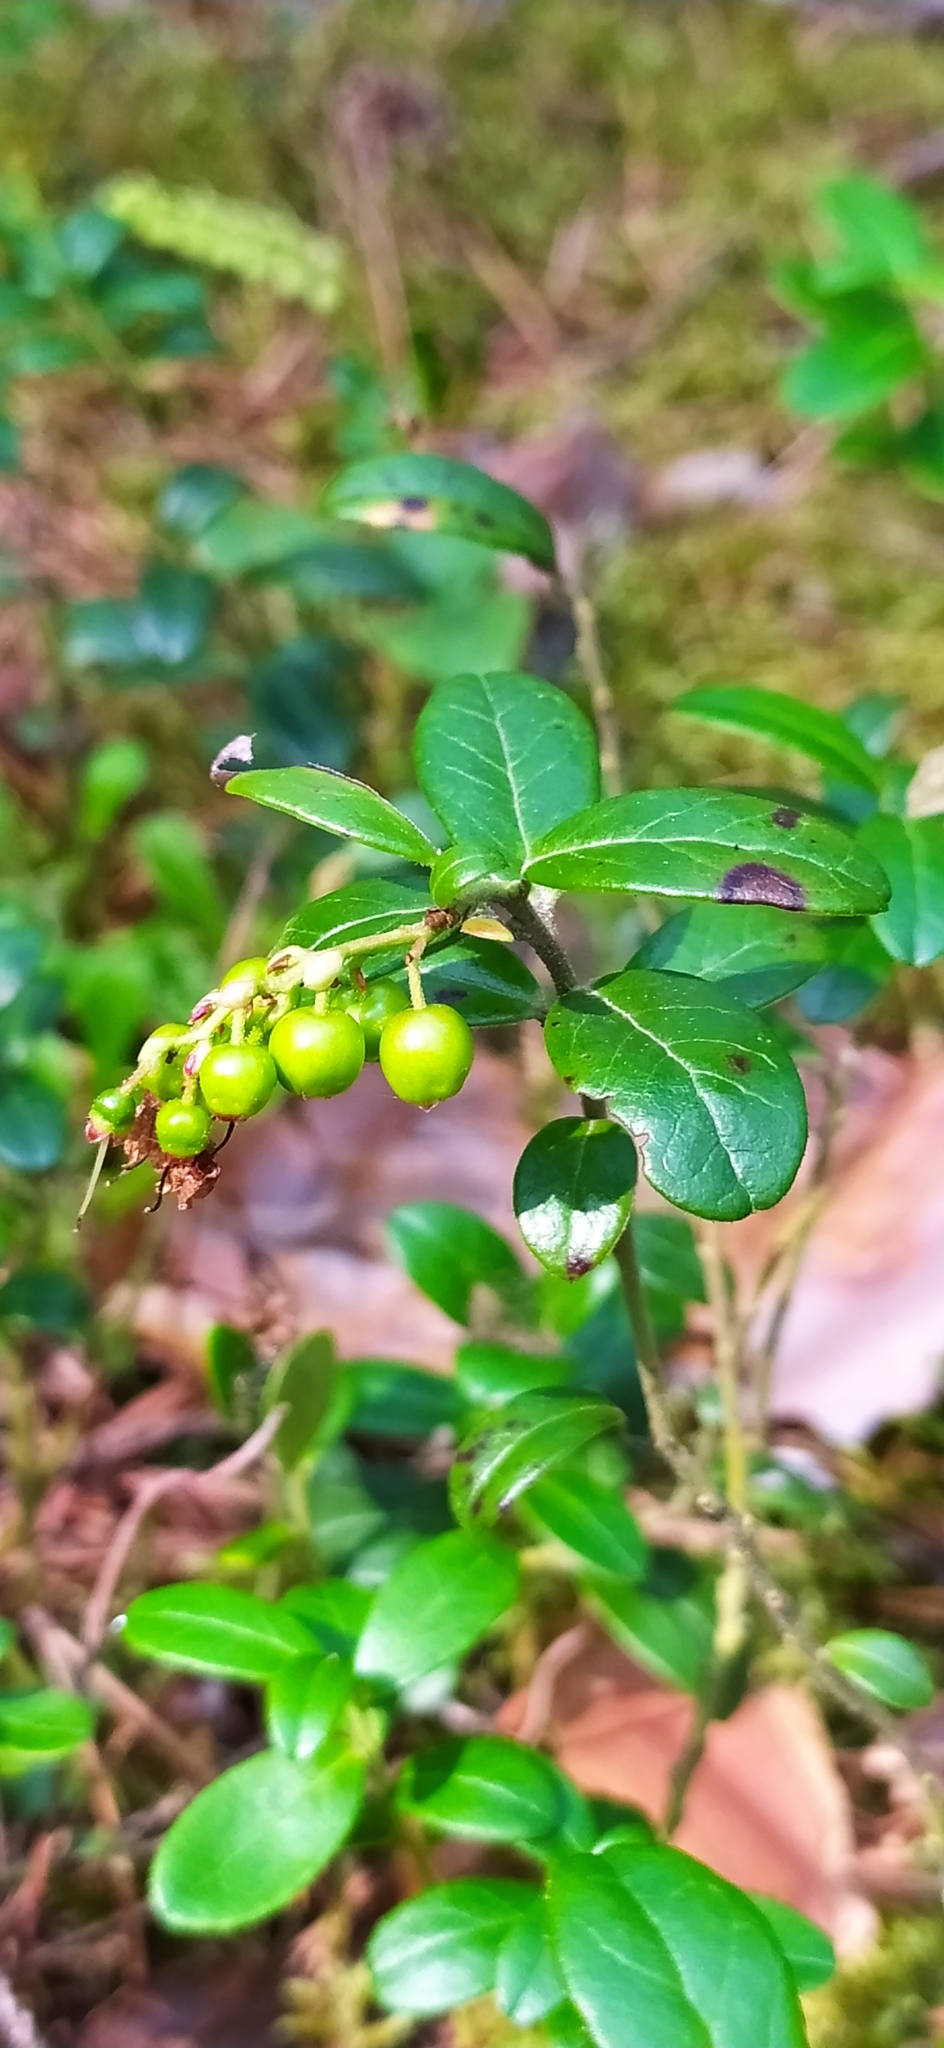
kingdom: Plantae
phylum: Tracheophyta
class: Magnoliopsida
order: Ericales
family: Ericaceae
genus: Vaccinium
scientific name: Vaccinium vitis-idaea
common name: Cowberry
